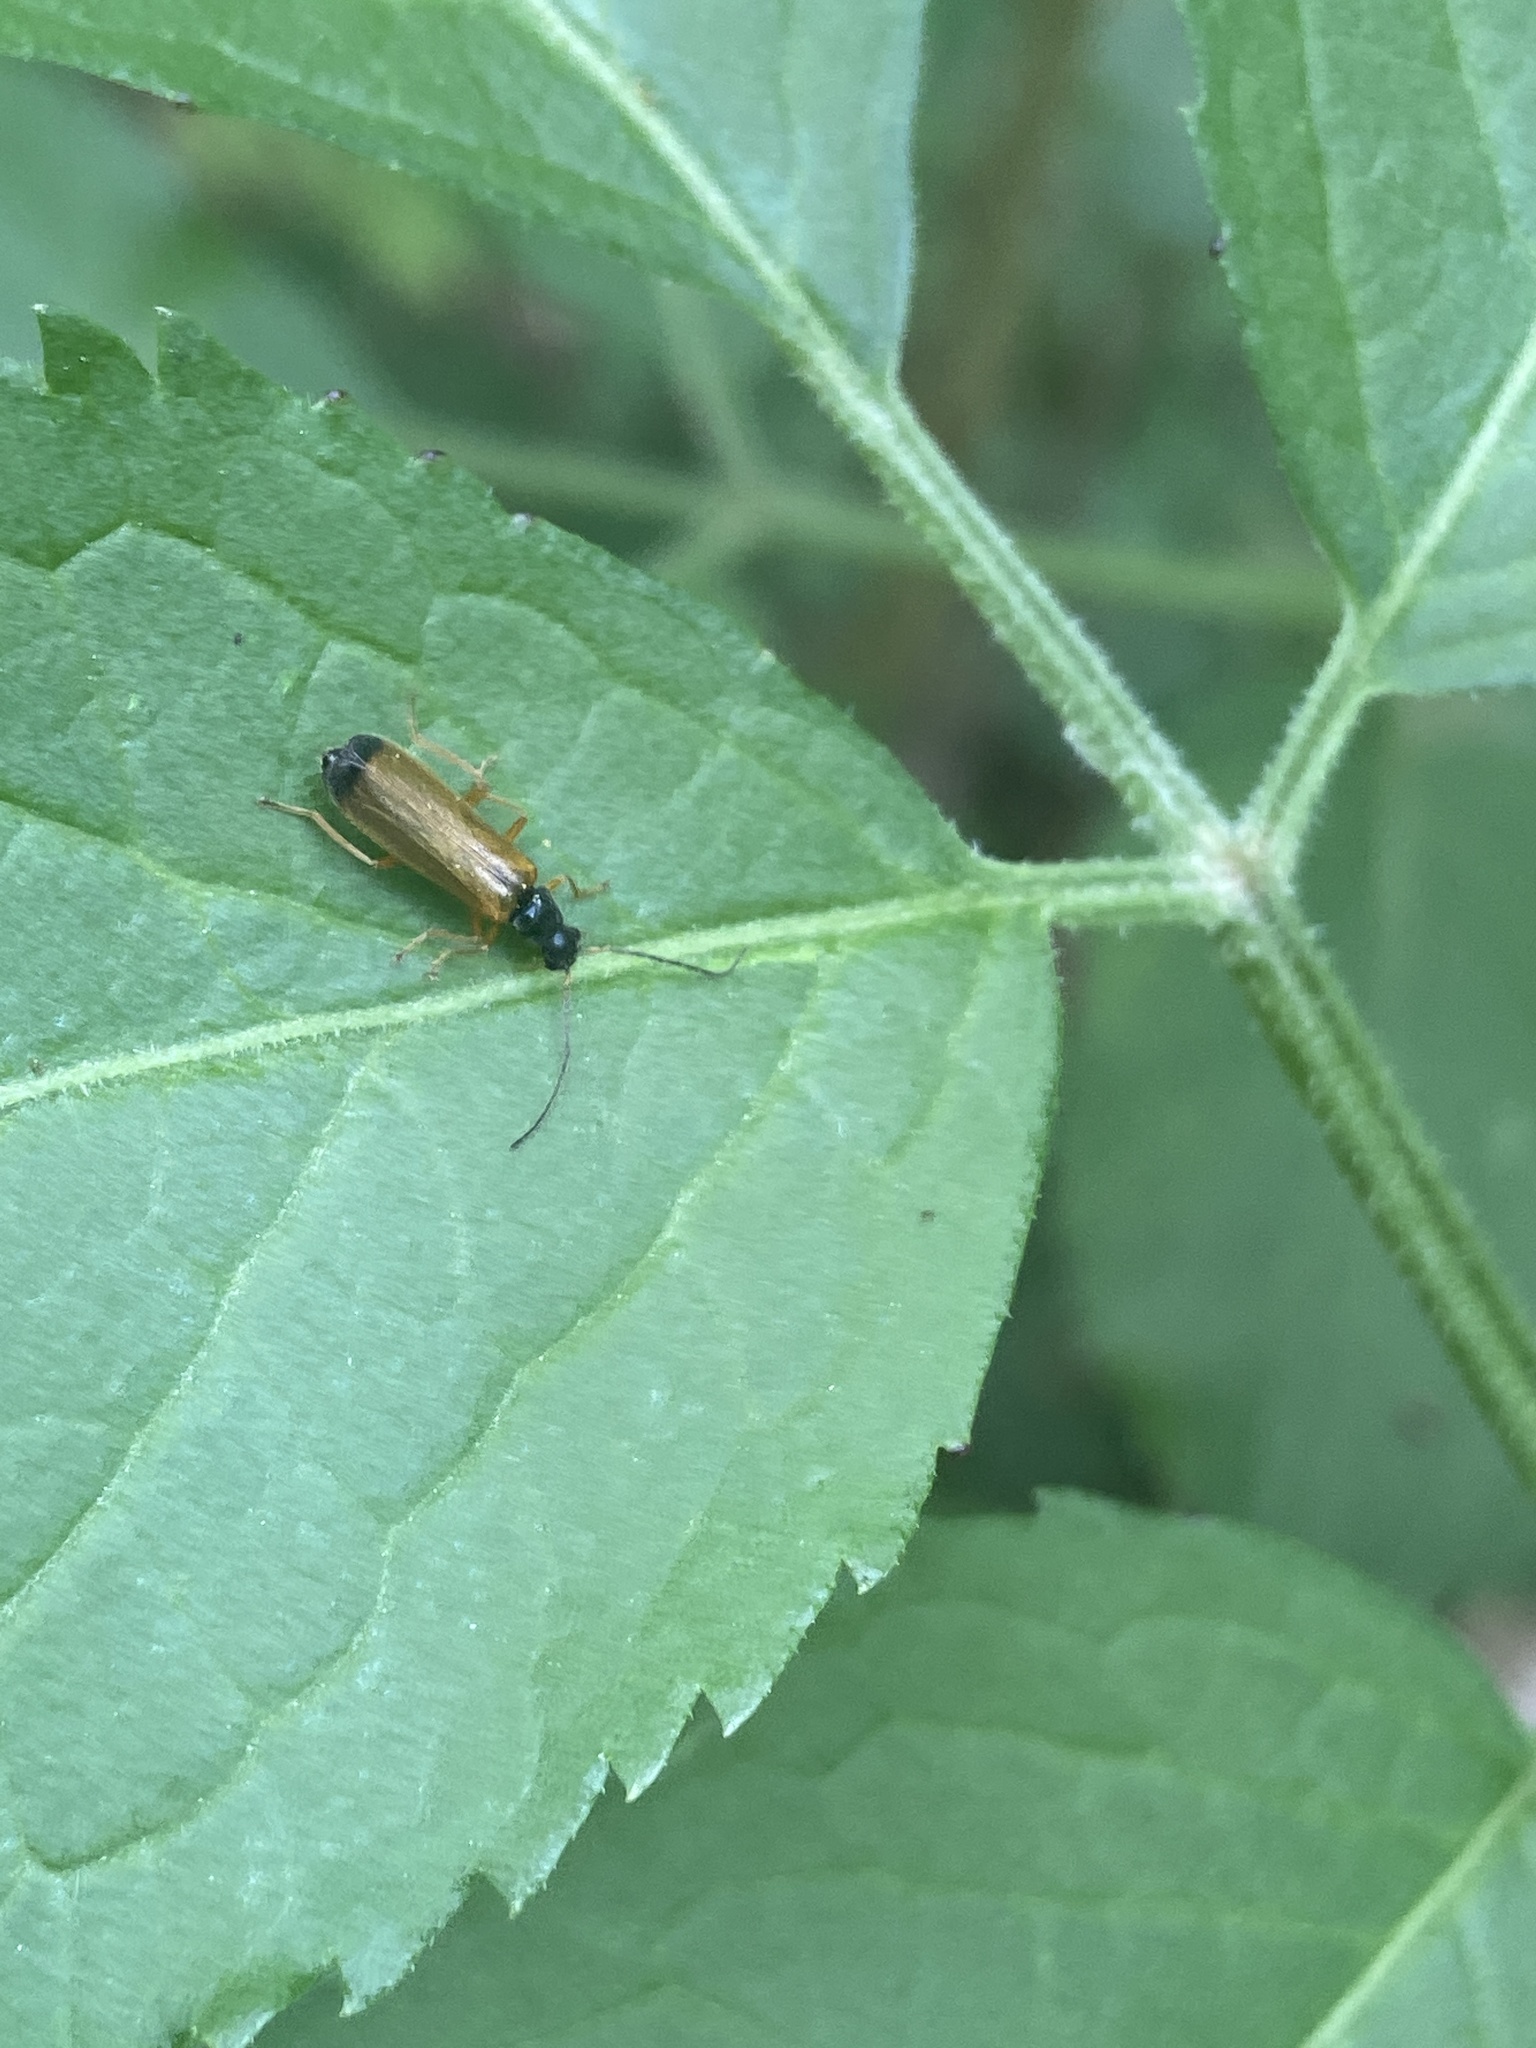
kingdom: Animalia
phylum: Arthropoda
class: Insecta
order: Coleoptera
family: Cantharidae
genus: Rhagonycha
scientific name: Rhagonycha lignosa
